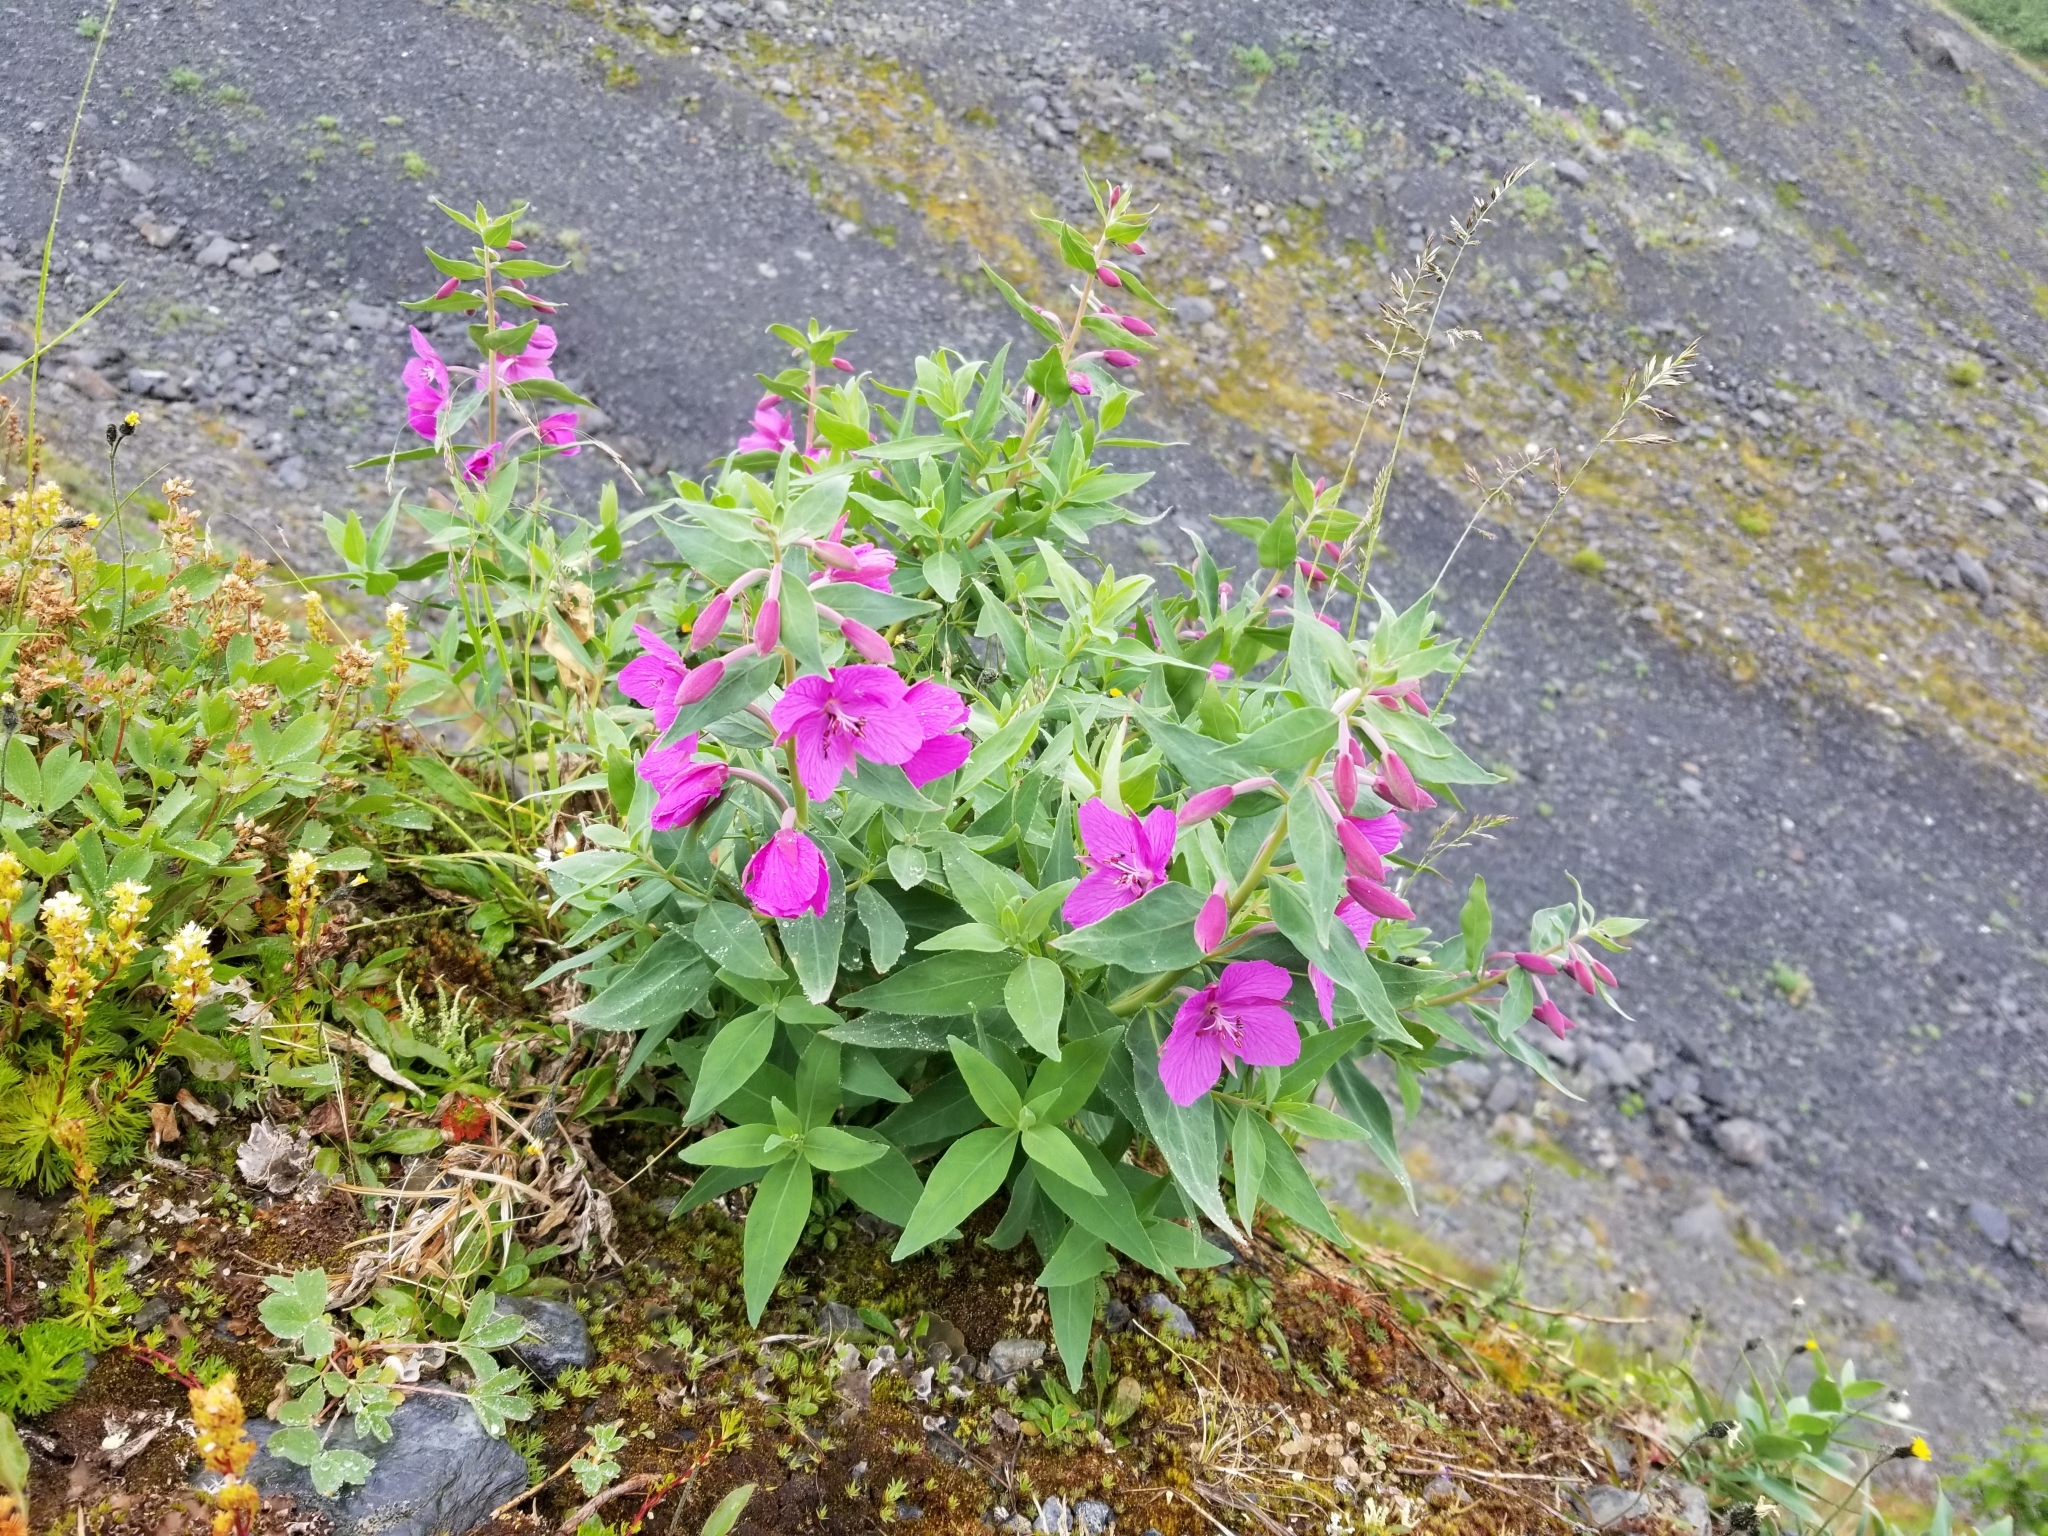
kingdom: Plantae
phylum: Tracheophyta
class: Magnoliopsida
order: Myrtales
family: Onagraceae
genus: Chamaenerion
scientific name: Chamaenerion latifolium
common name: Dwarf fireweed
